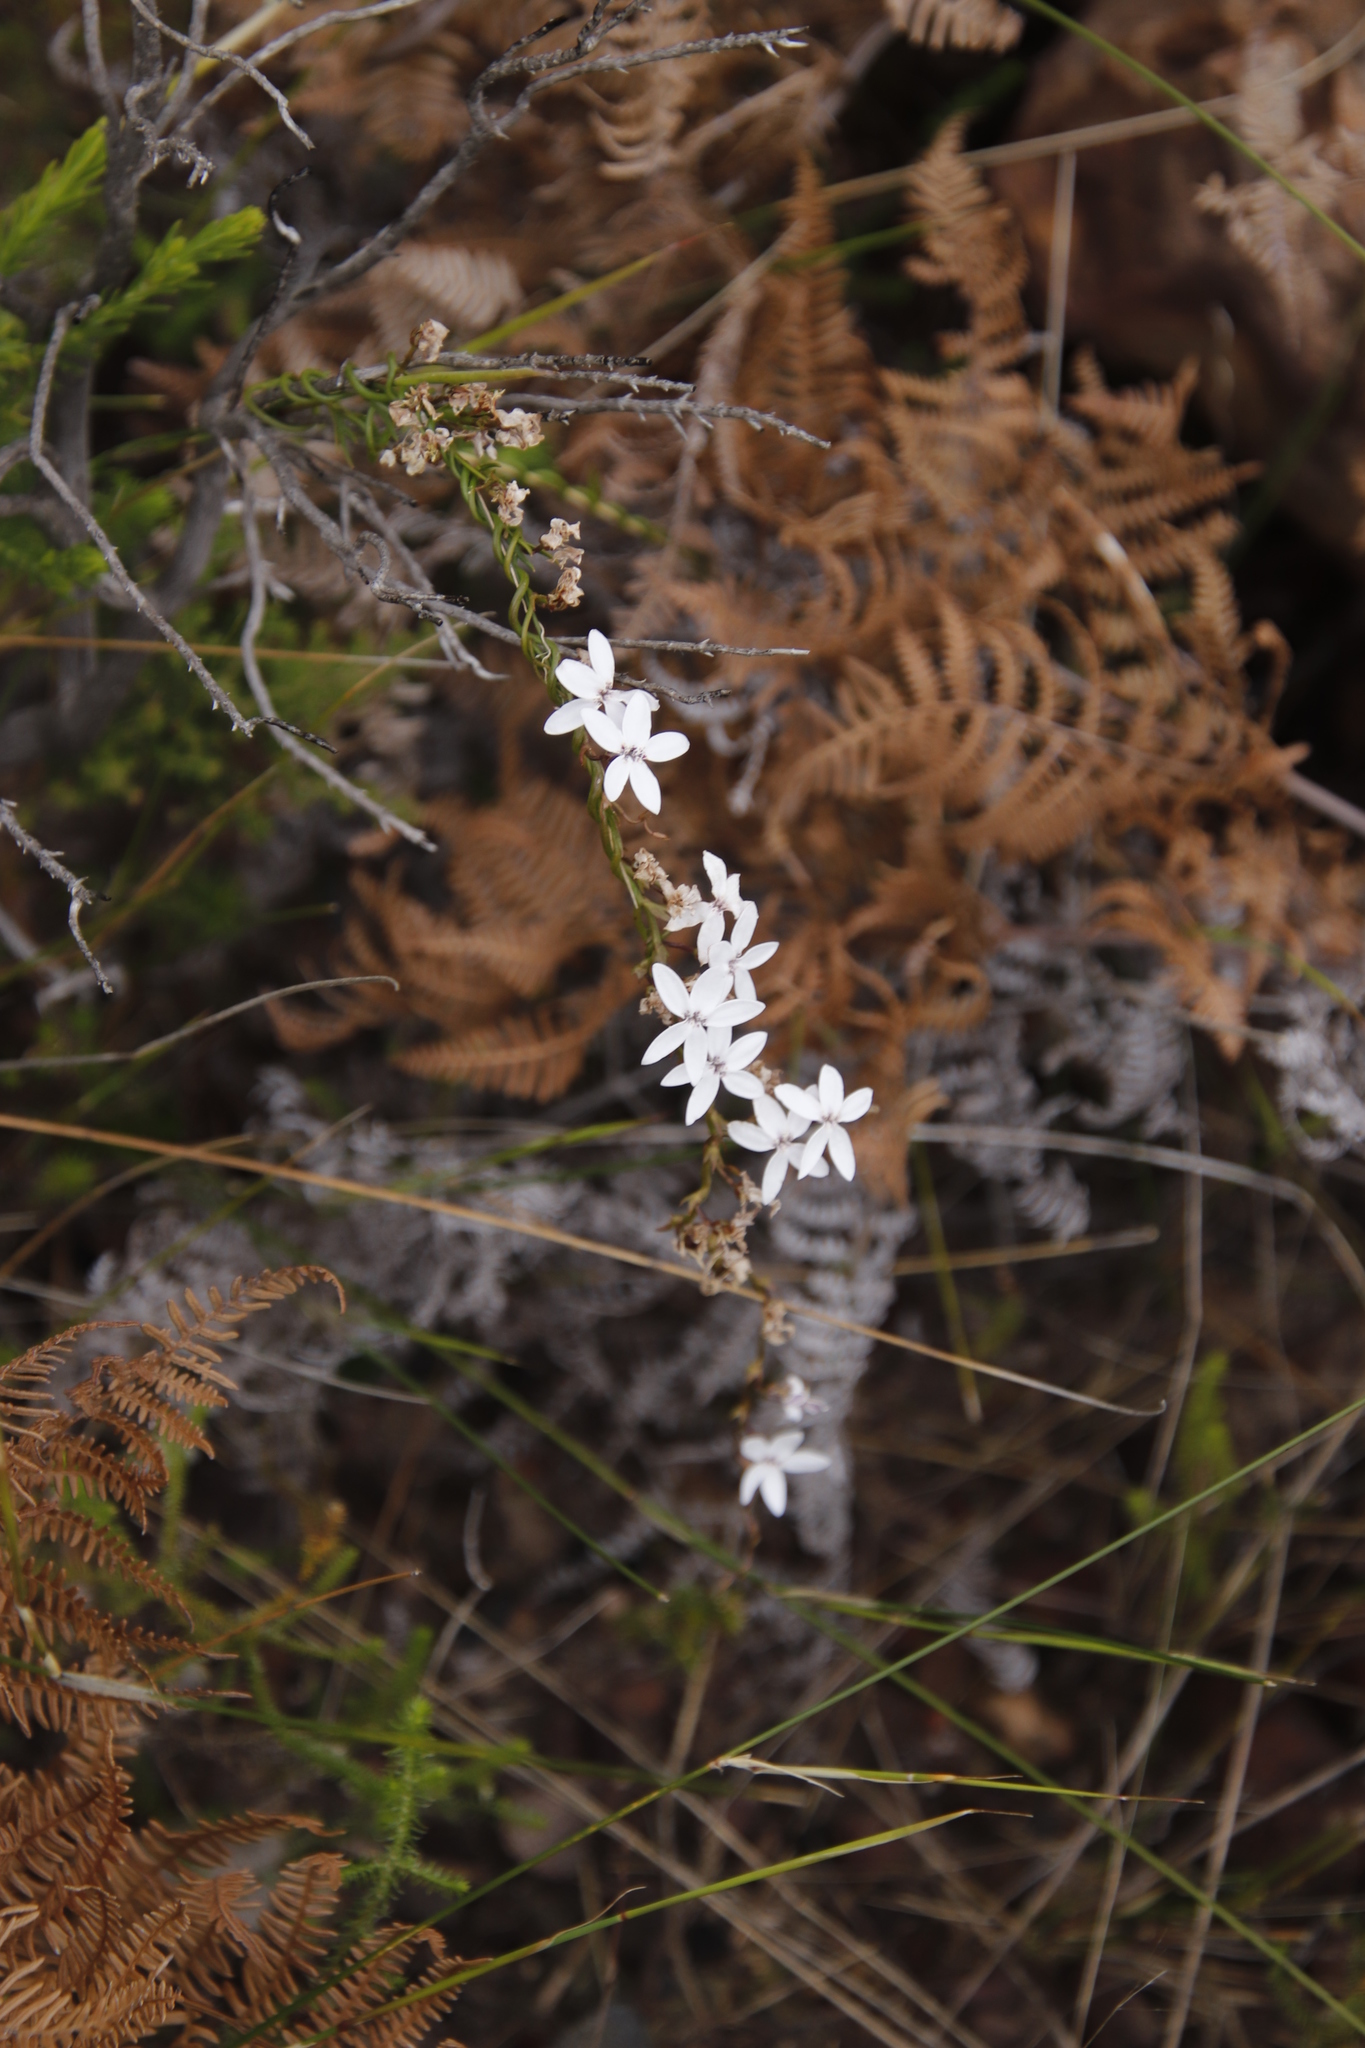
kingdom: Plantae
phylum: Tracheophyta
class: Magnoliopsida
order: Asterales
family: Campanulaceae
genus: Cyphia
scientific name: Cyphia volubilis
